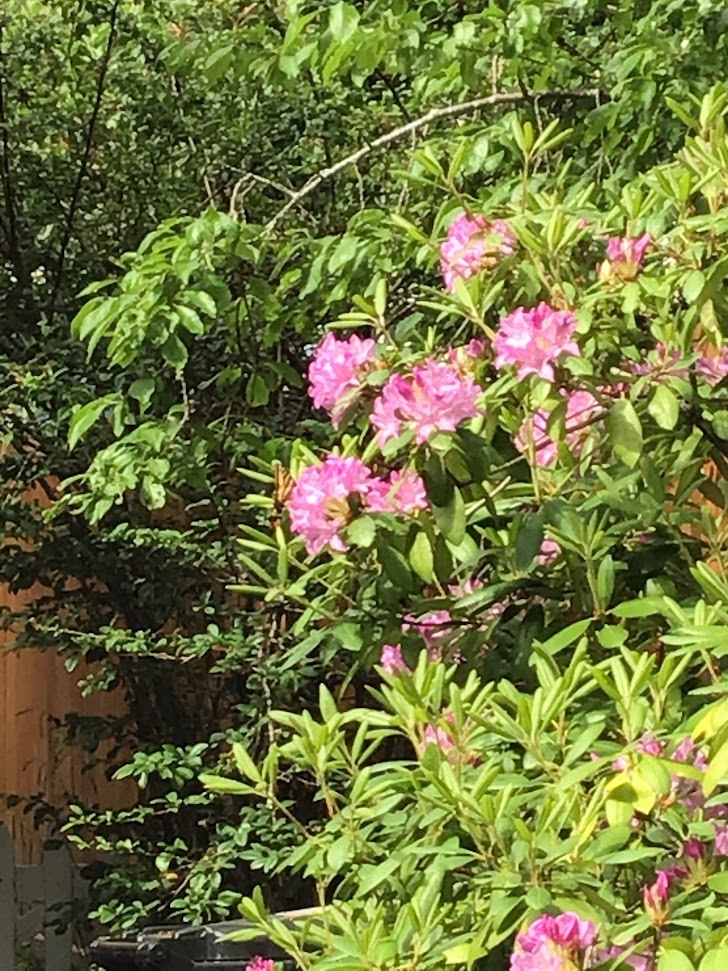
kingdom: Animalia
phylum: Arthropoda
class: Insecta
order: Lepidoptera
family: Papilionidae
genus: Papilio
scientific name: Papilio rutulus
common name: Western tiger swallowtail
